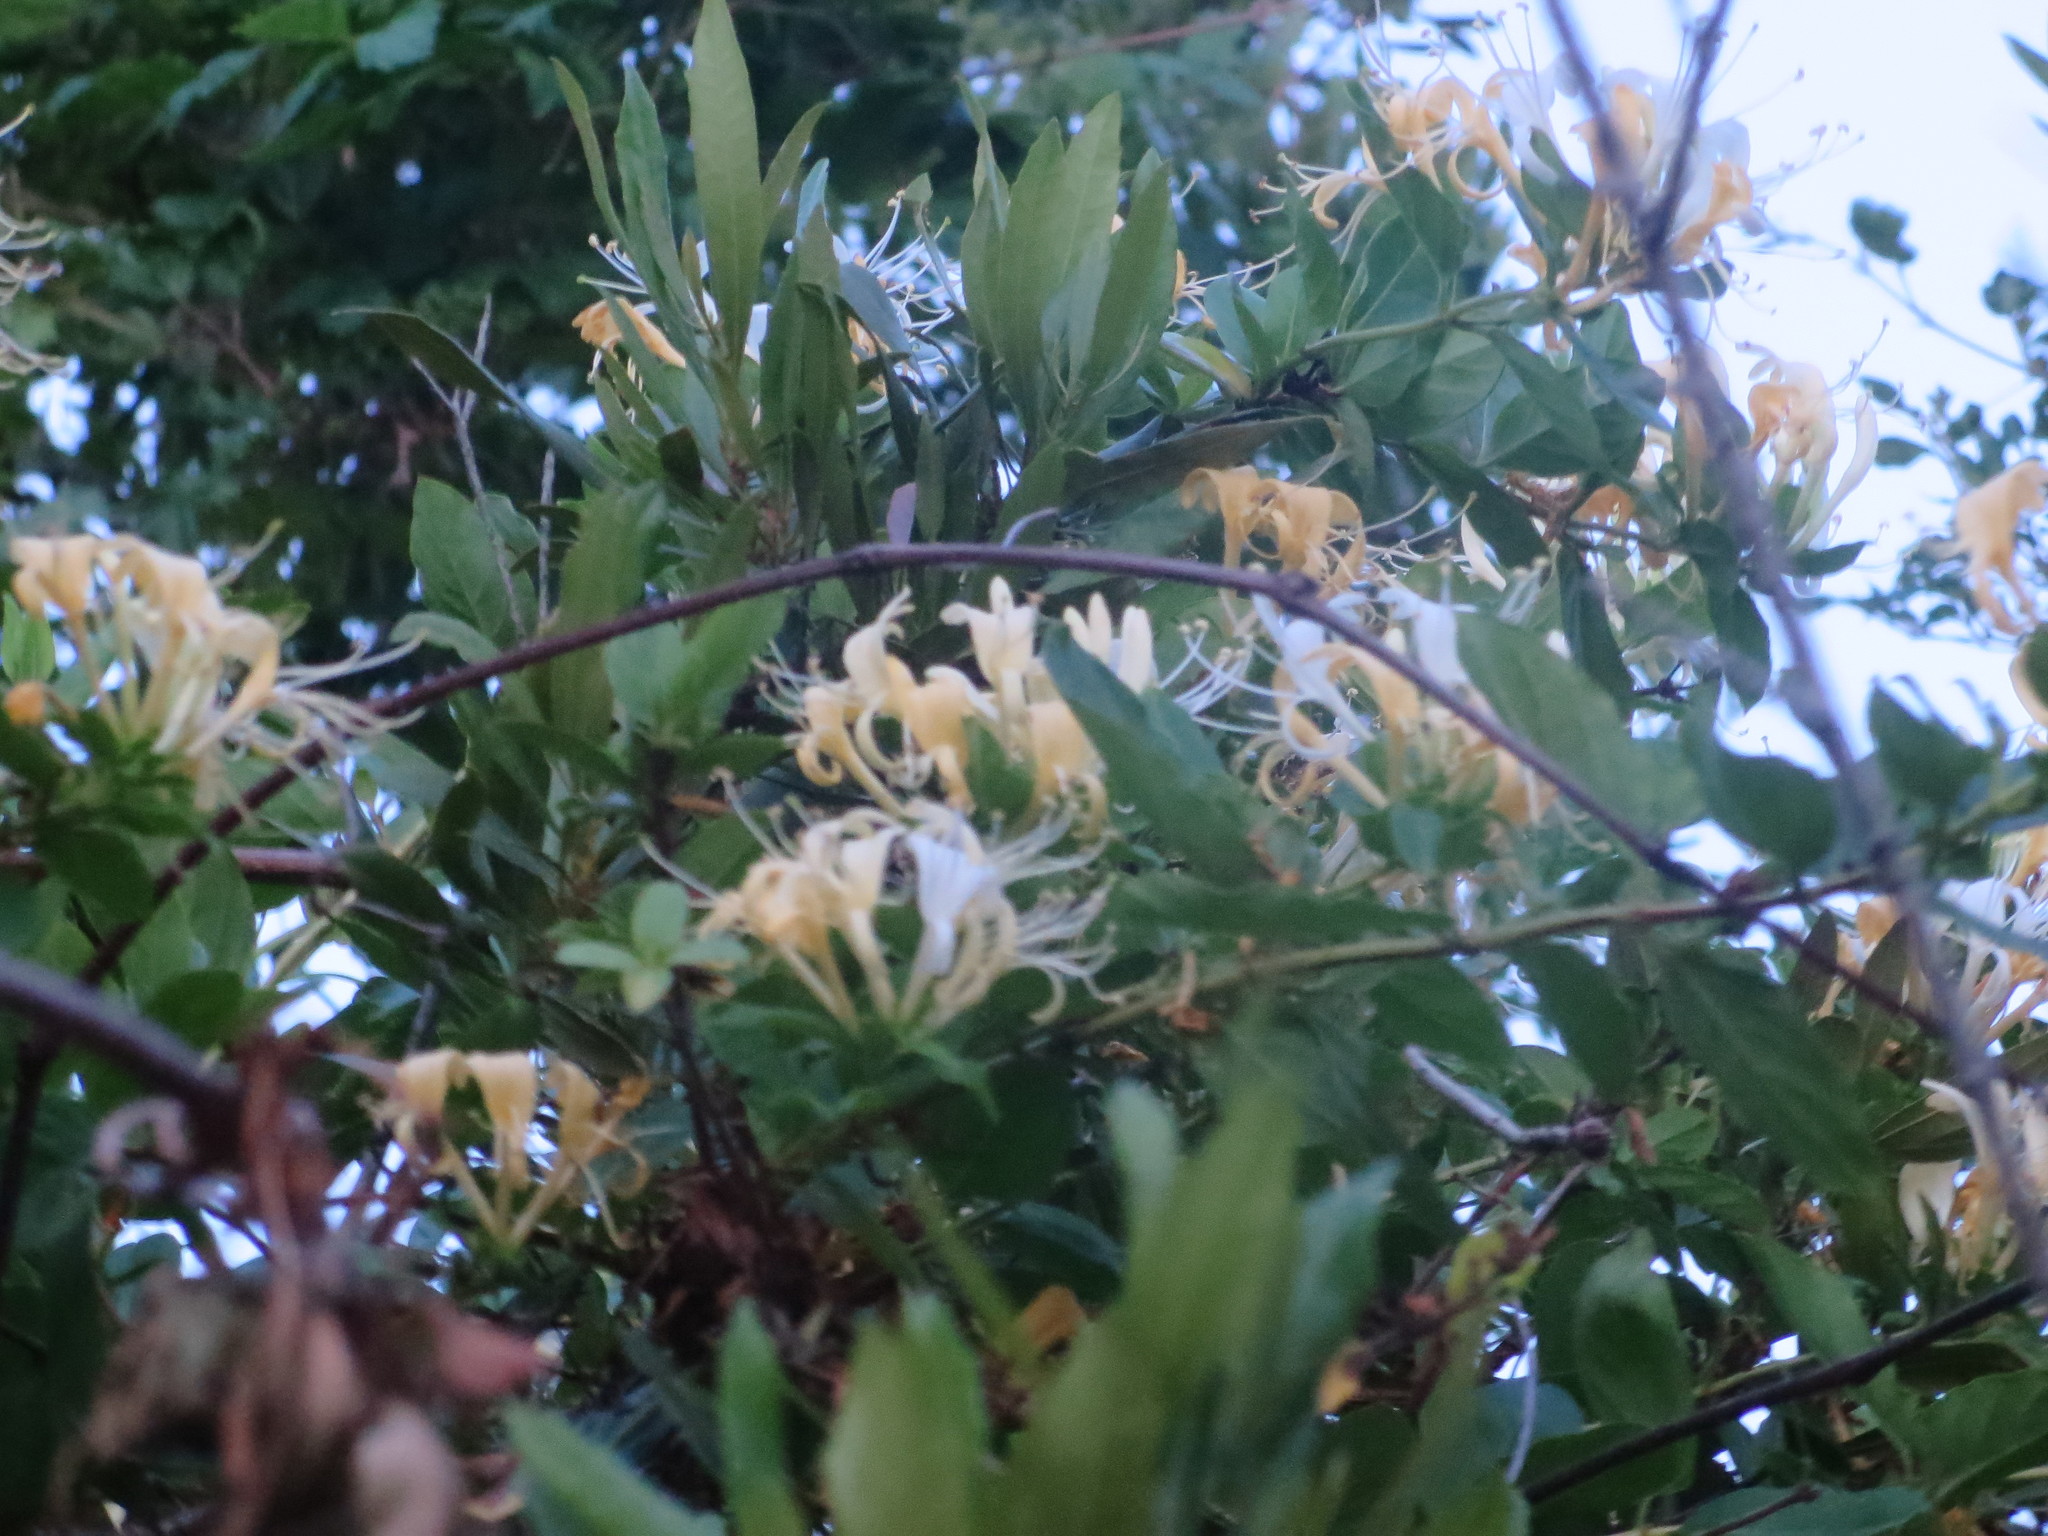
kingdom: Plantae
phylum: Tracheophyta
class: Magnoliopsida
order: Dipsacales
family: Caprifoliaceae
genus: Lonicera
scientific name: Lonicera japonica
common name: Japanese honeysuckle
